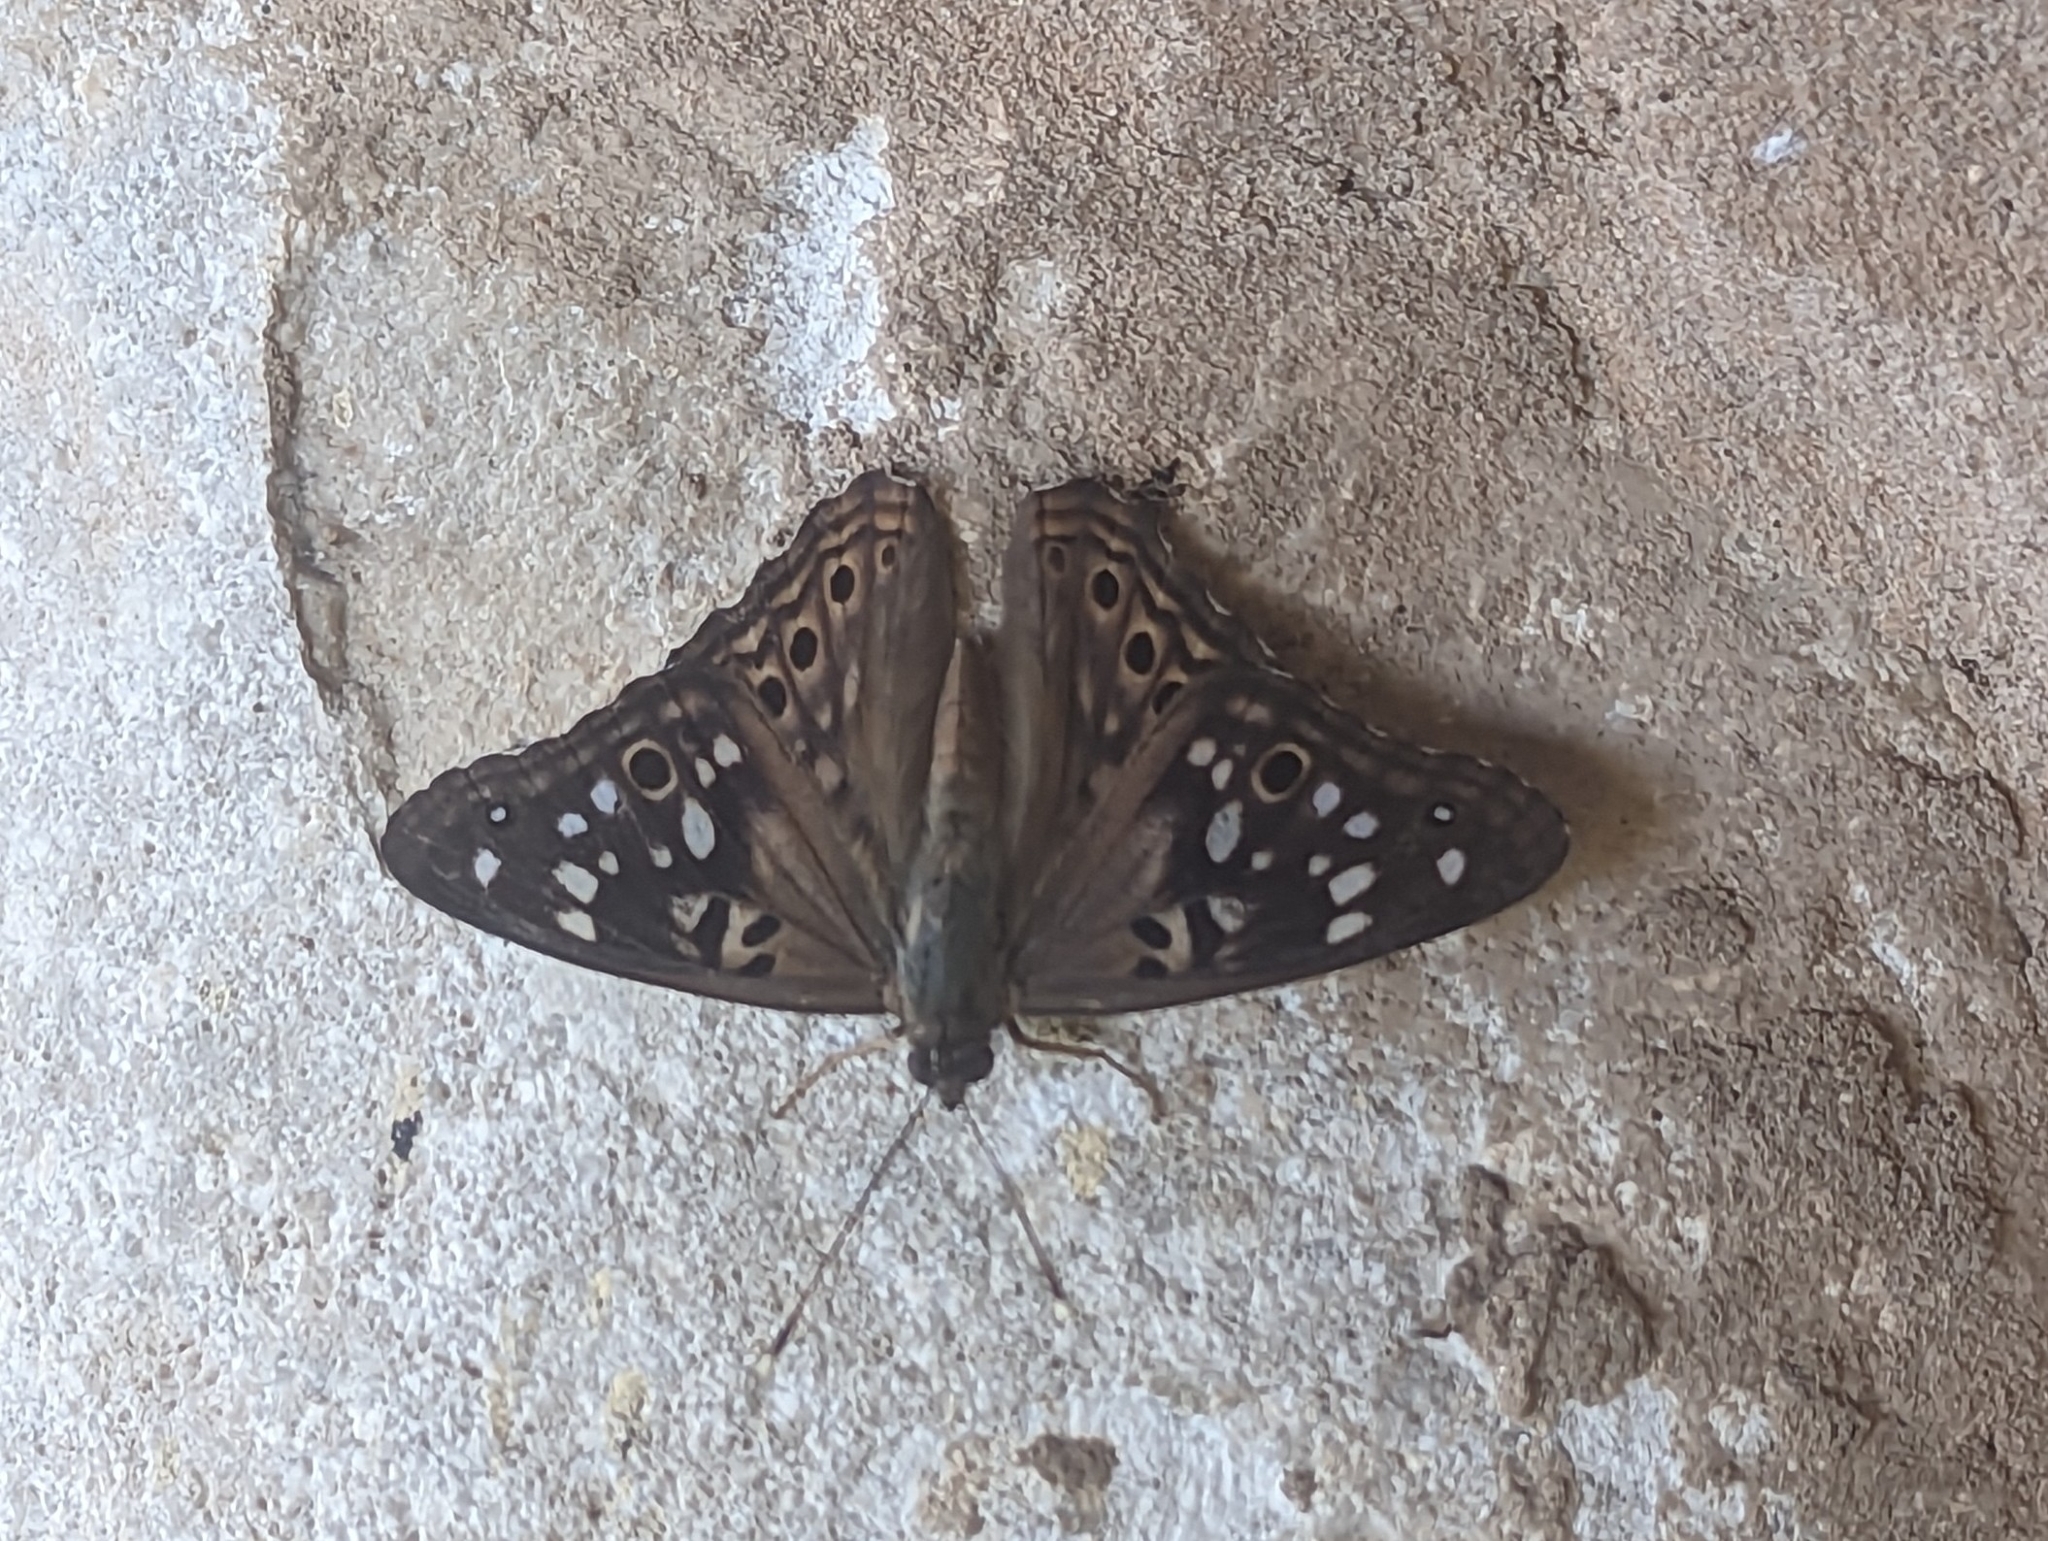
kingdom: Animalia
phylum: Arthropoda
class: Insecta
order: Lepidoptera
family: Nymphalidae
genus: Asterocampa
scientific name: Asterocampa celtis
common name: Hackberry emperor
